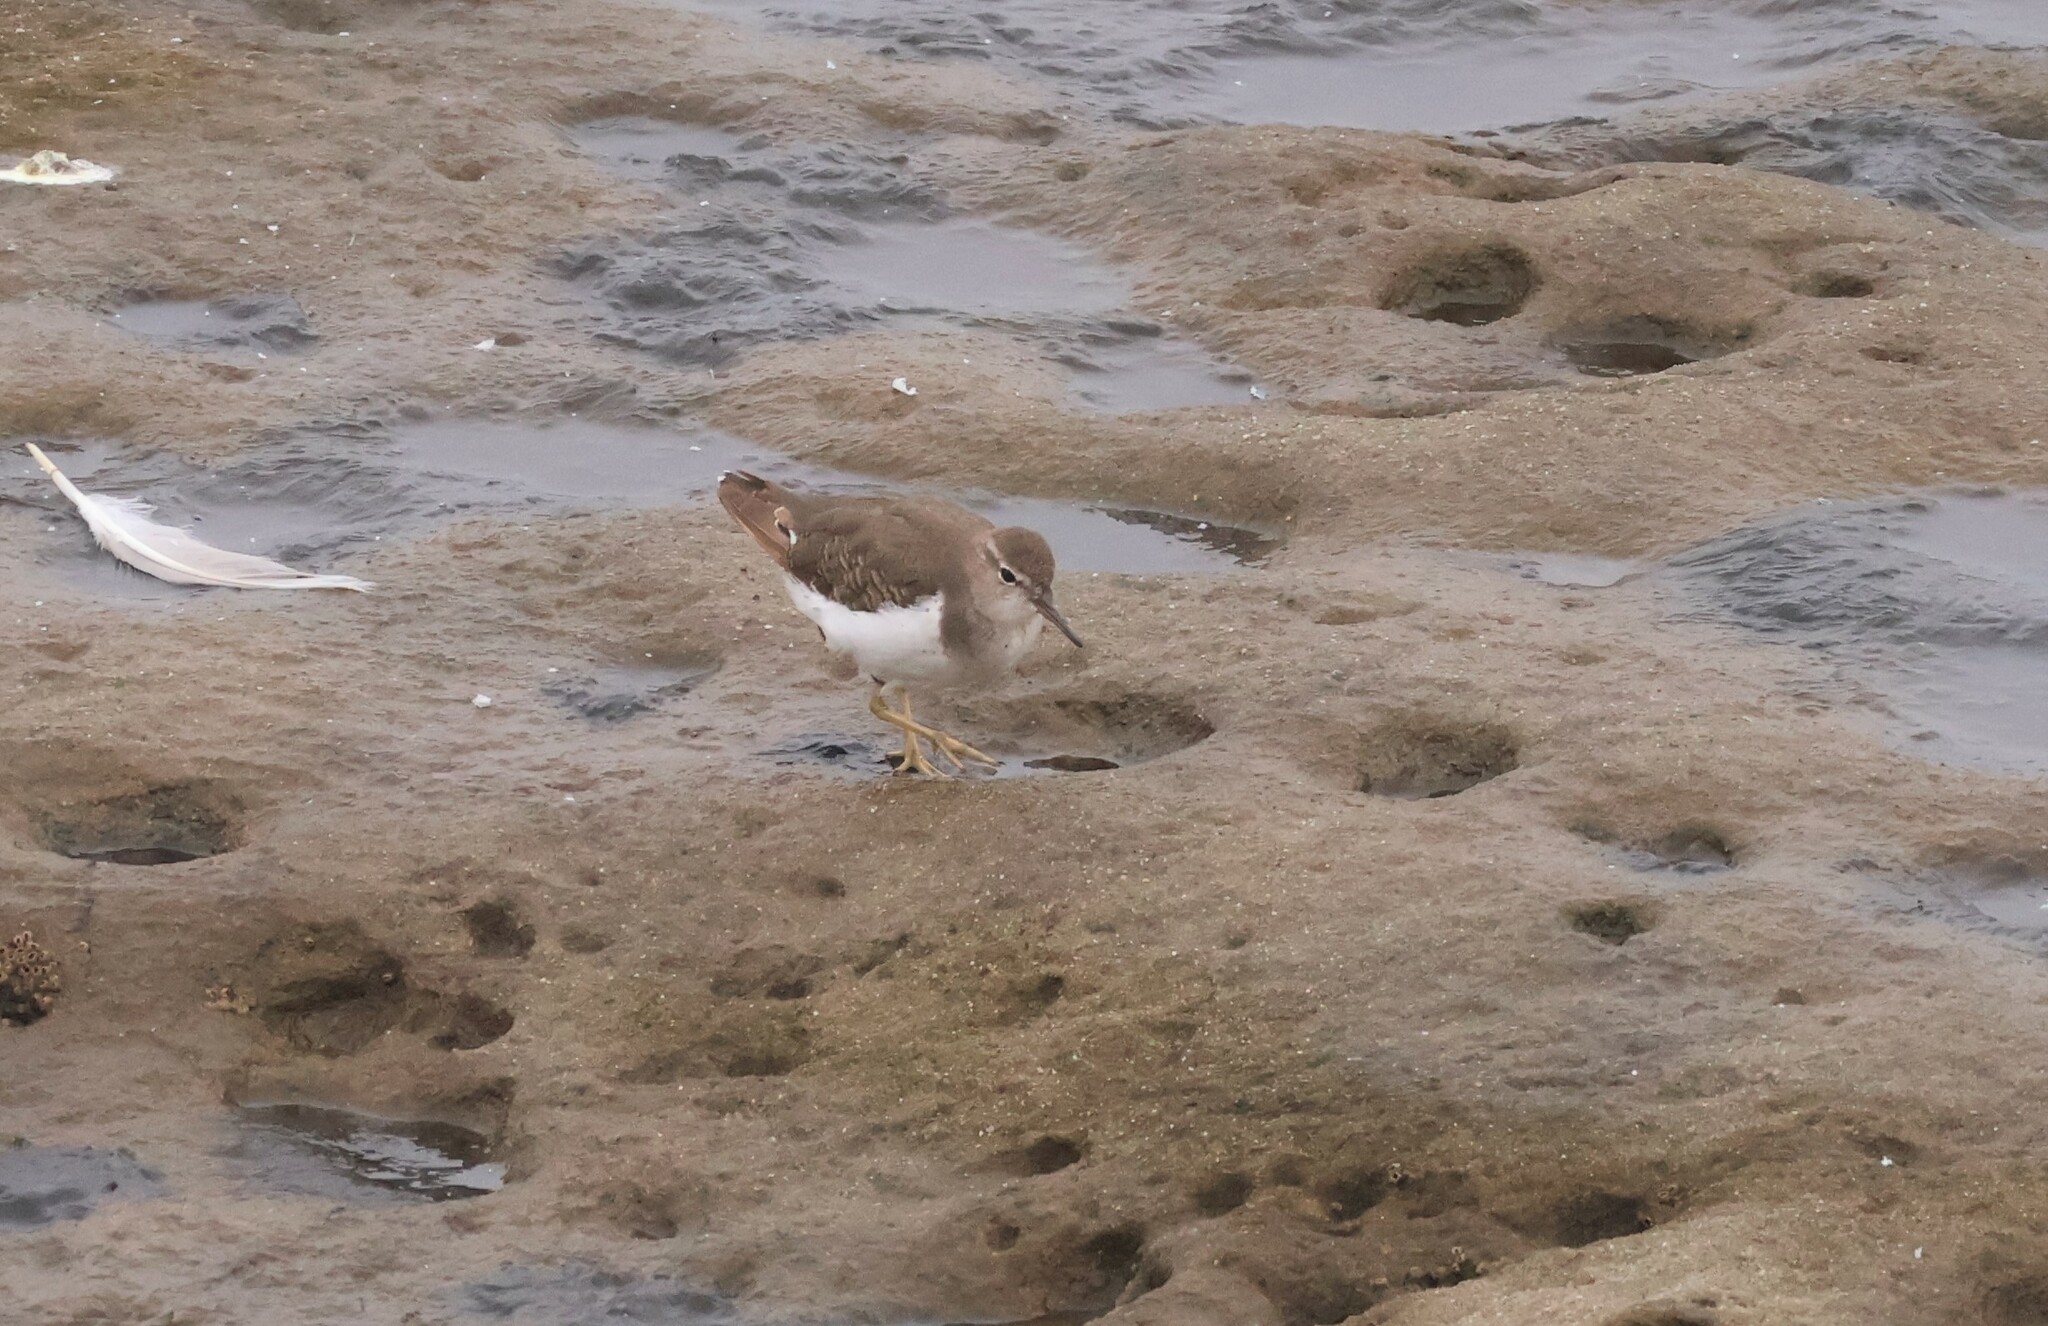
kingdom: Animalia
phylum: Chordata
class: Aves
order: Charadriiformes
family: Scolopacidae
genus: Actitis
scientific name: Actitis macularius
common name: Spotted sandpiper
